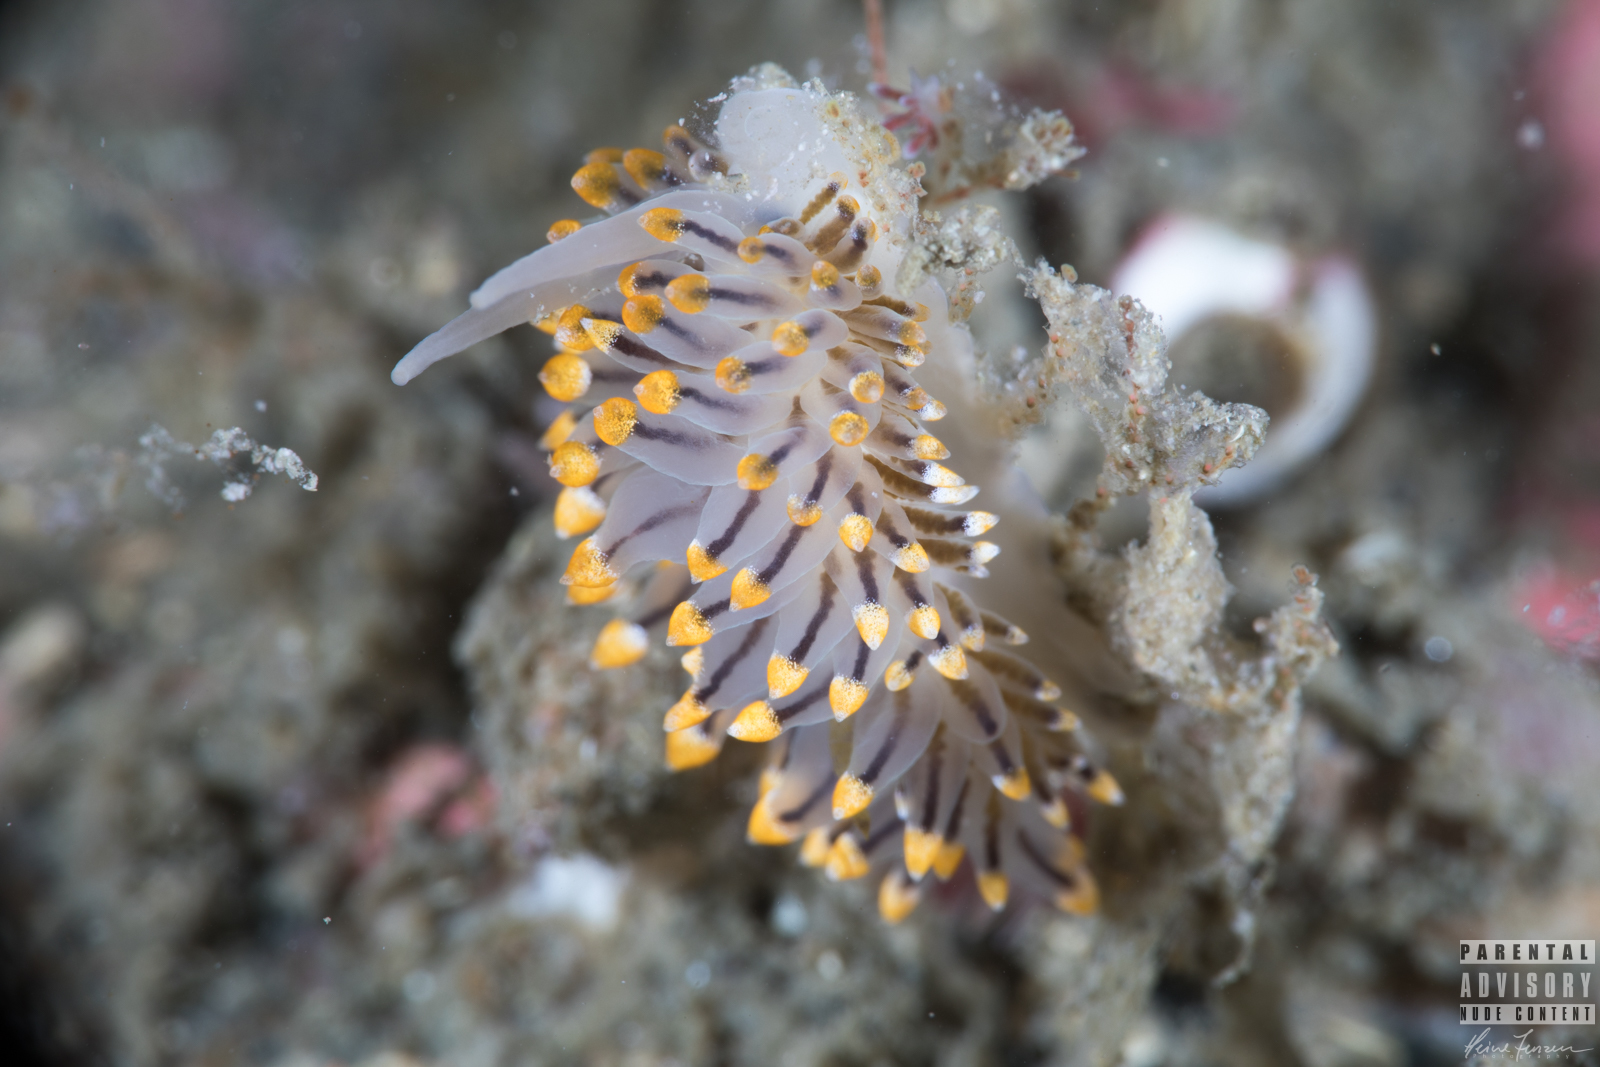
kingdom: Animalia
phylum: Mollusca
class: Gastropoda
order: Nudibranchia
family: Eubranchidae
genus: Eubranchus
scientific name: Eubranchus tricolor
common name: Painted balloon aeolis
